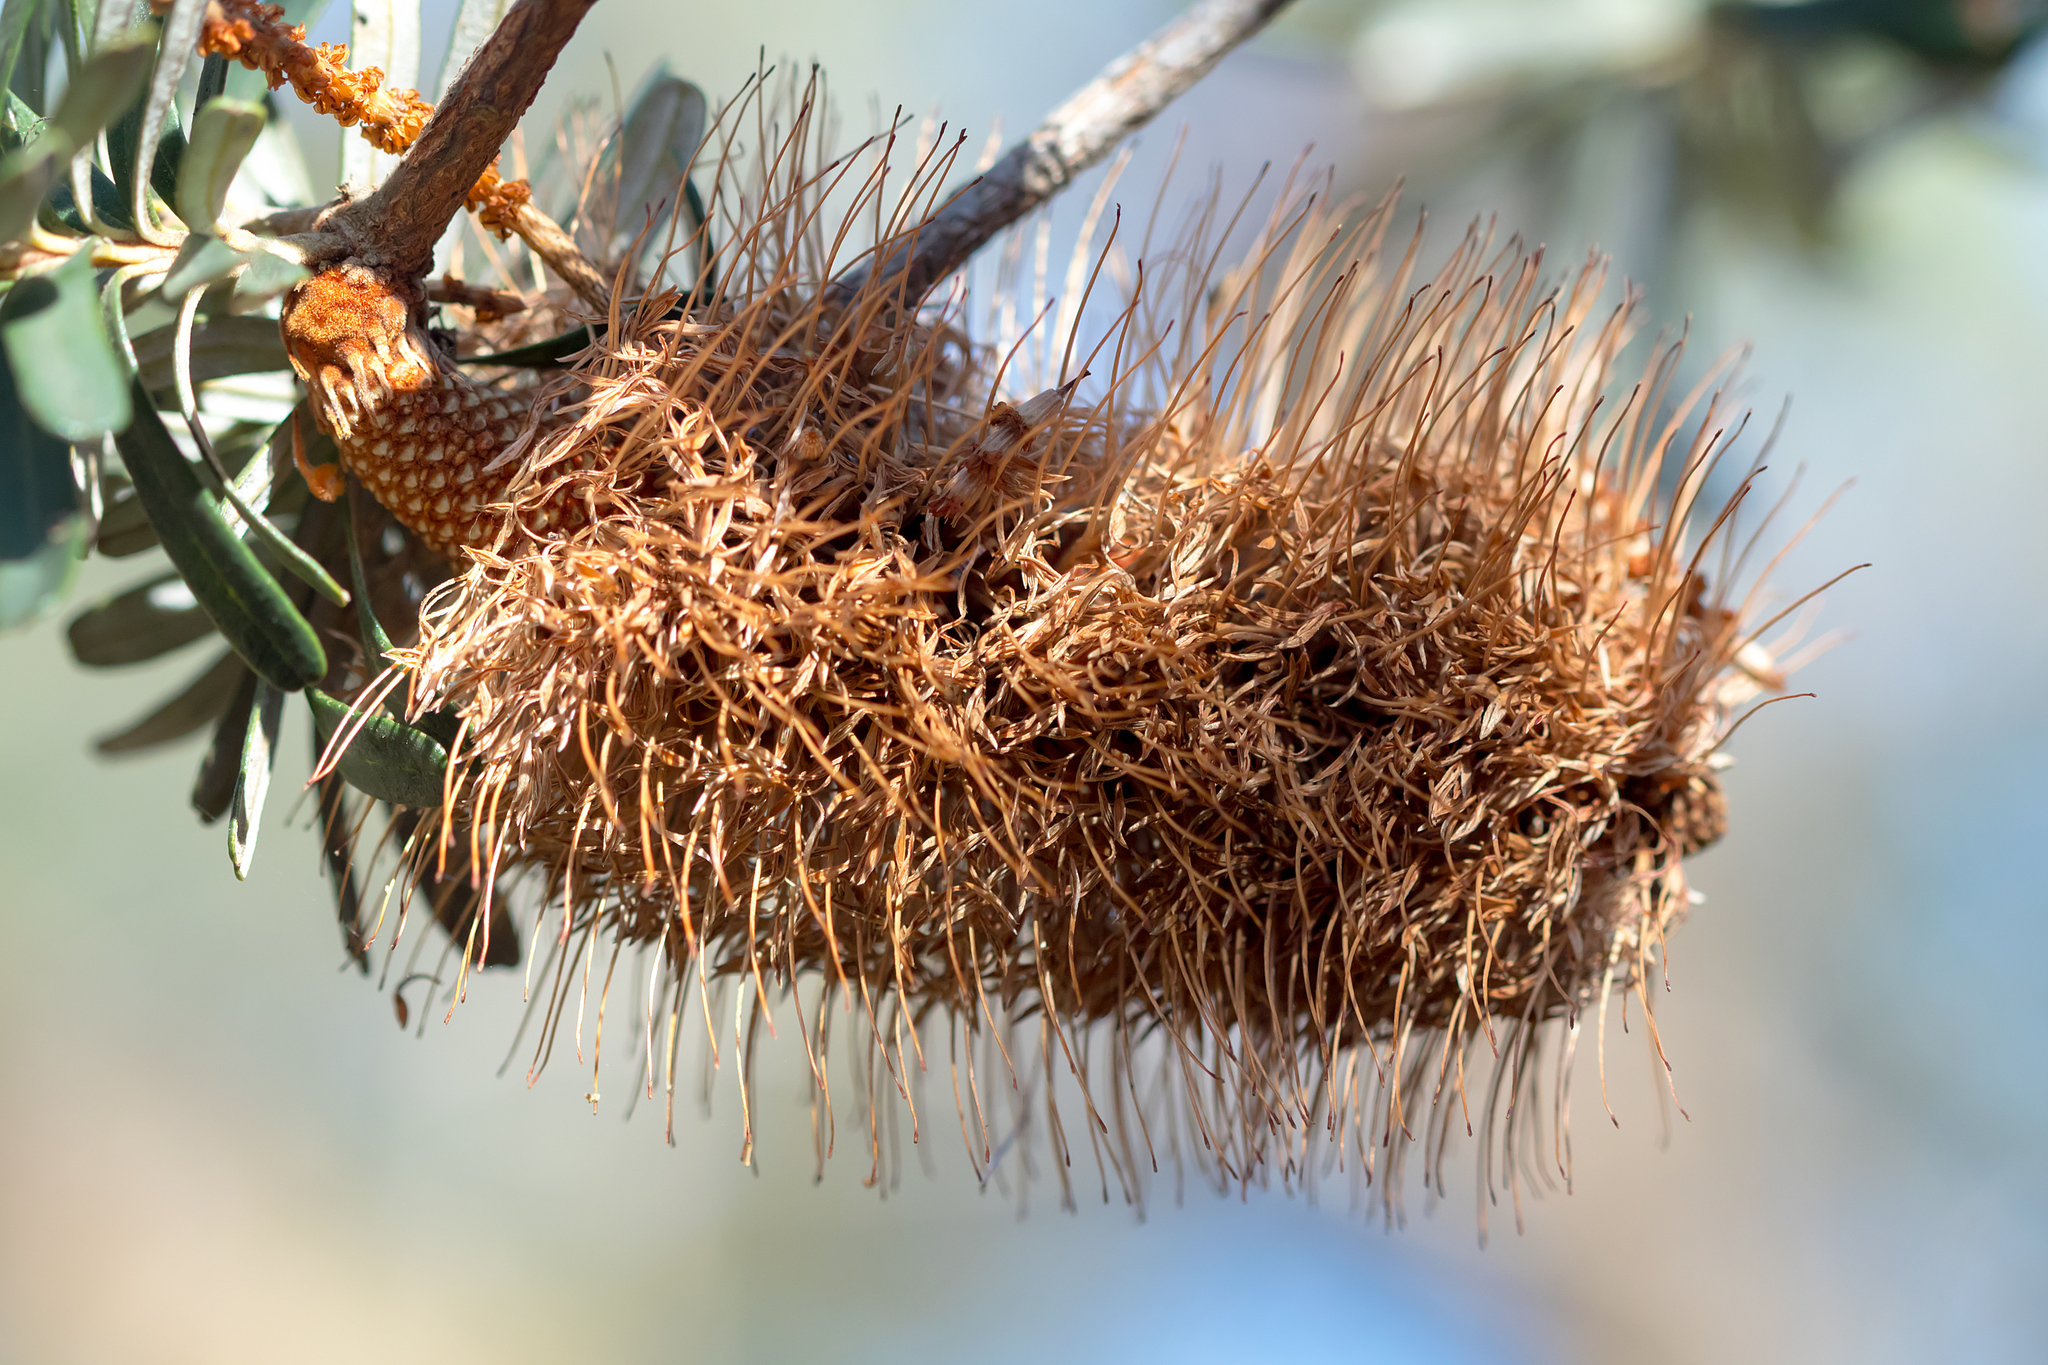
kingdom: Plantae
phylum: Tracheophyta
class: Magnoliopsida
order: Proteales
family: Proteaceae
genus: Banksia
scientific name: Banksia marginata
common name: Silver banksia
